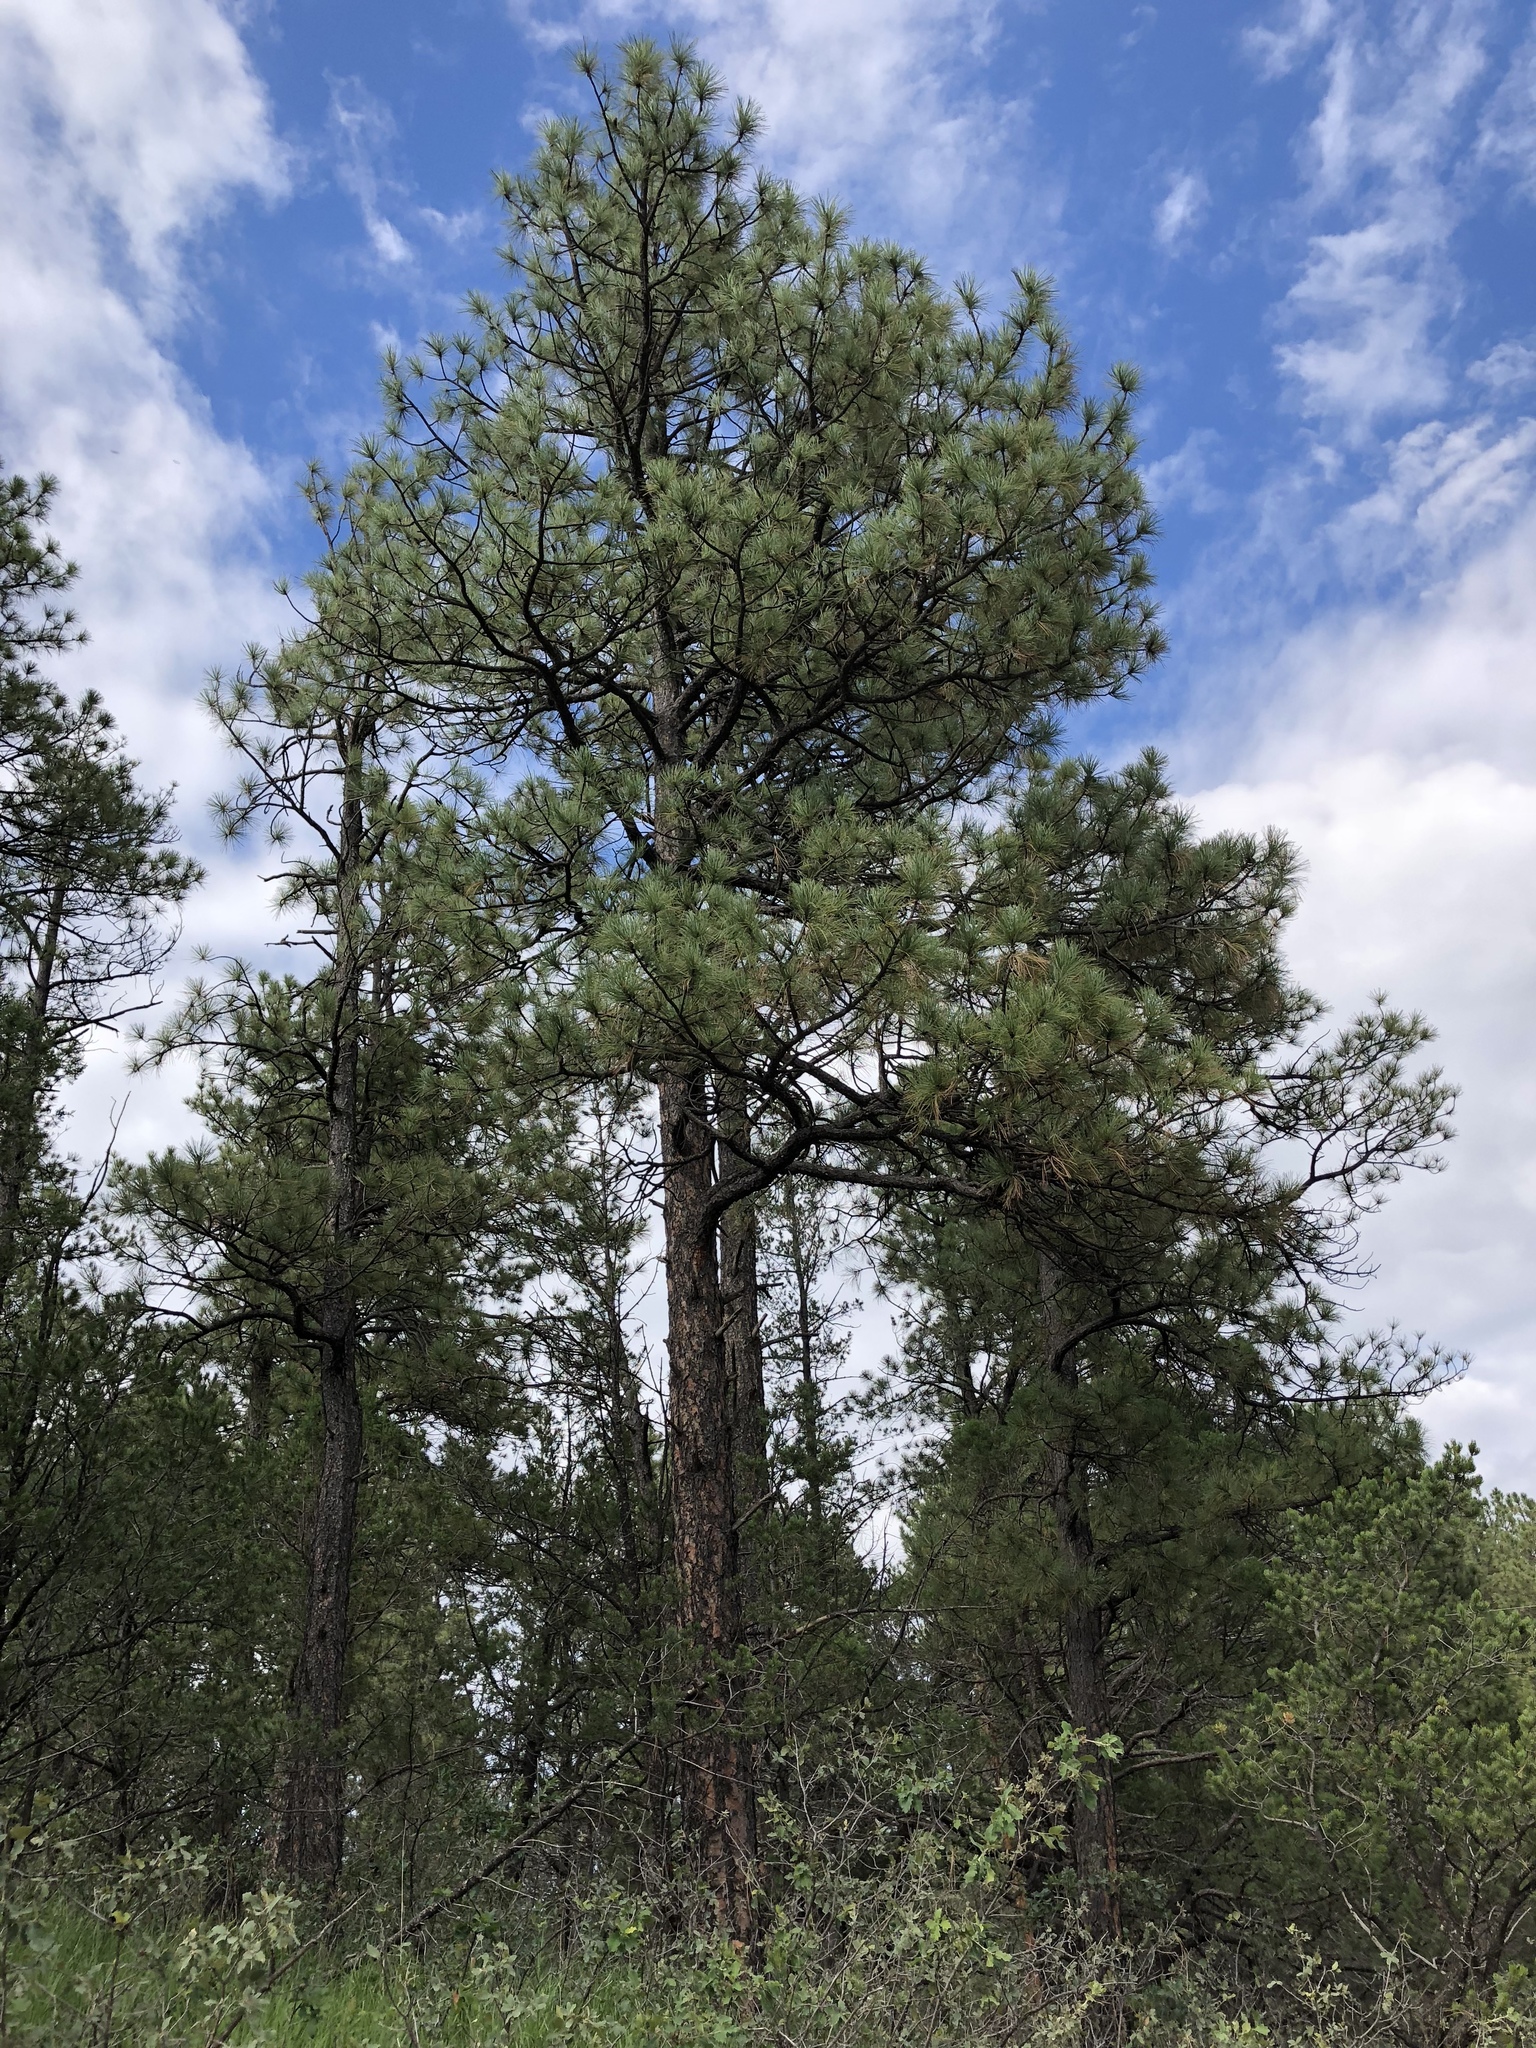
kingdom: Plantae
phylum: Tracheophyta
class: Pinopsida
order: Pinales
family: Pinaceae
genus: Pinus
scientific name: Pinus ponderosa
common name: Western yellow-pine
